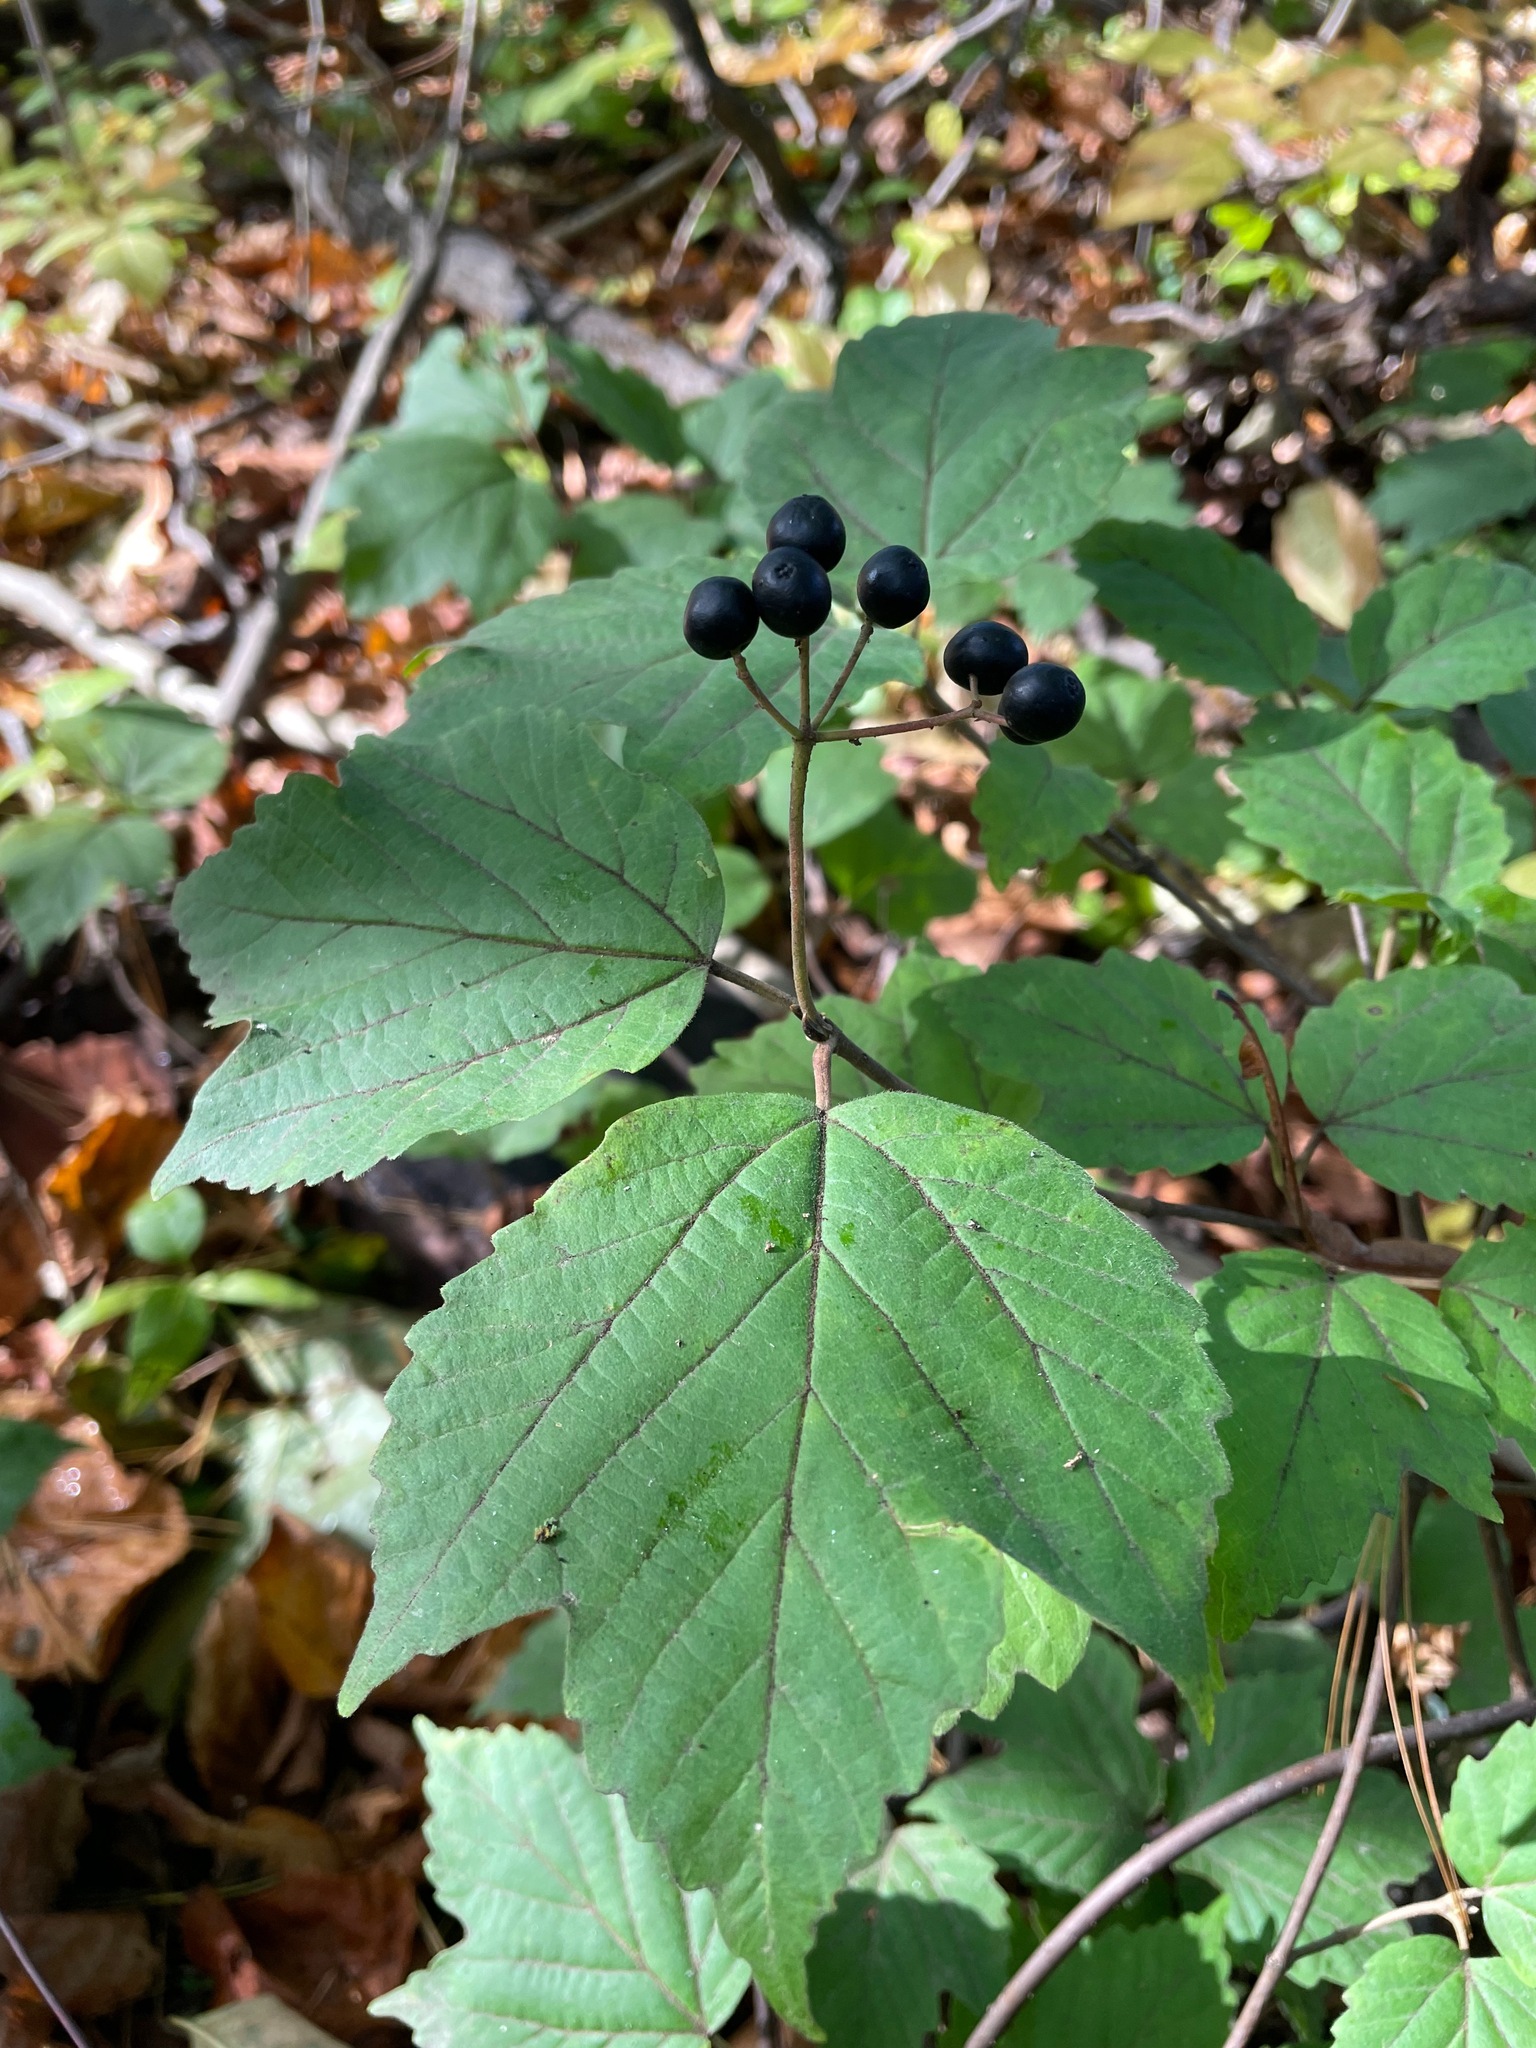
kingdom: Plantae
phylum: Tracheophyta
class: Magnoliopsida
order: Dipsacales
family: Viburnaceae
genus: Viburnum
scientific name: Viburnum acerifolium
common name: Dockmackie
